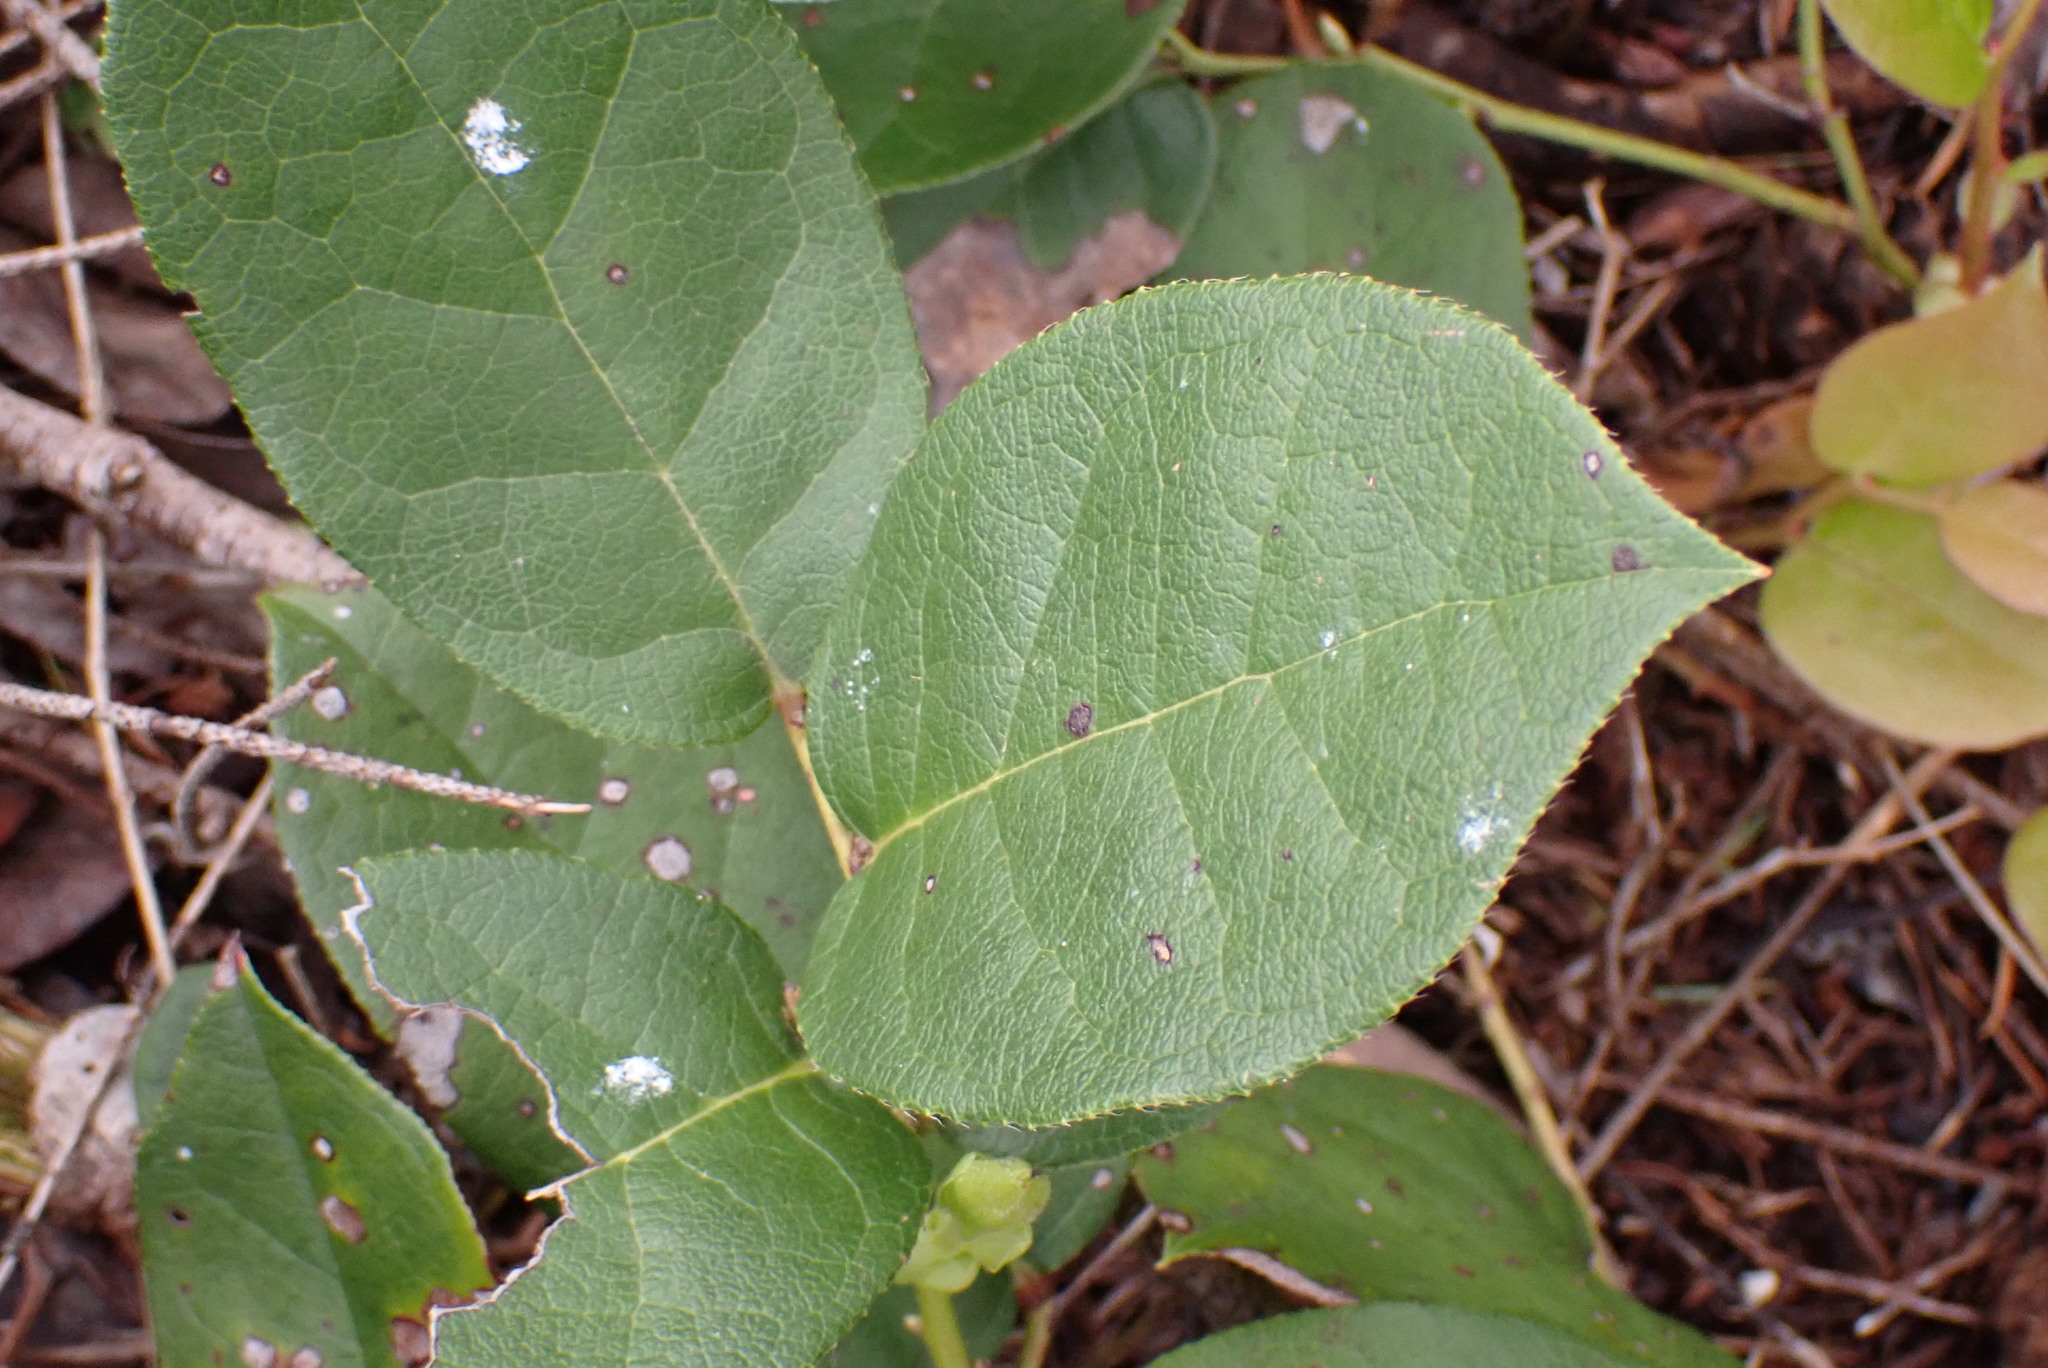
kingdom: Plantae
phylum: Tracheophyta
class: Magnoliopsida
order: Ericales
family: Ericaceae
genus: Gaultheria
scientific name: Gaultheria shallon
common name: Shallon
